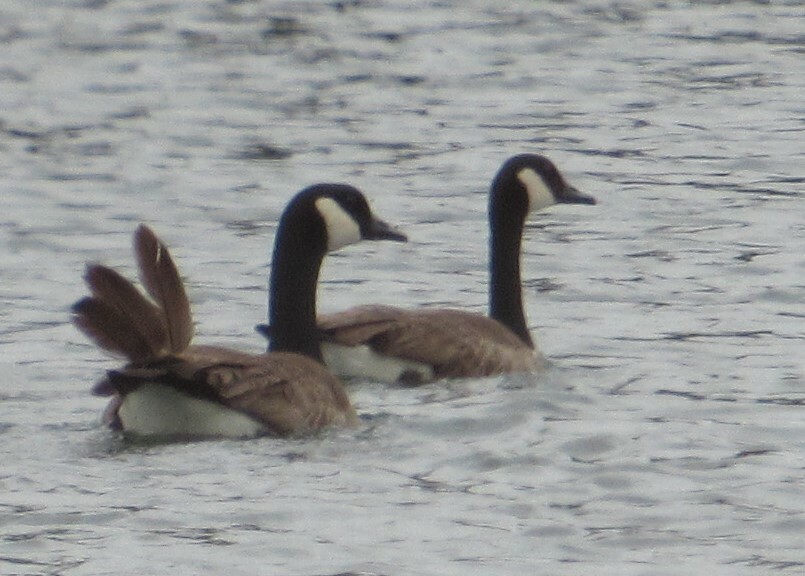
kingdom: Animalia
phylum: Chordata
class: Aves
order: Anseriformes
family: Anatidae
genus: Branta
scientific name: Branta canadensis
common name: Canada goose
